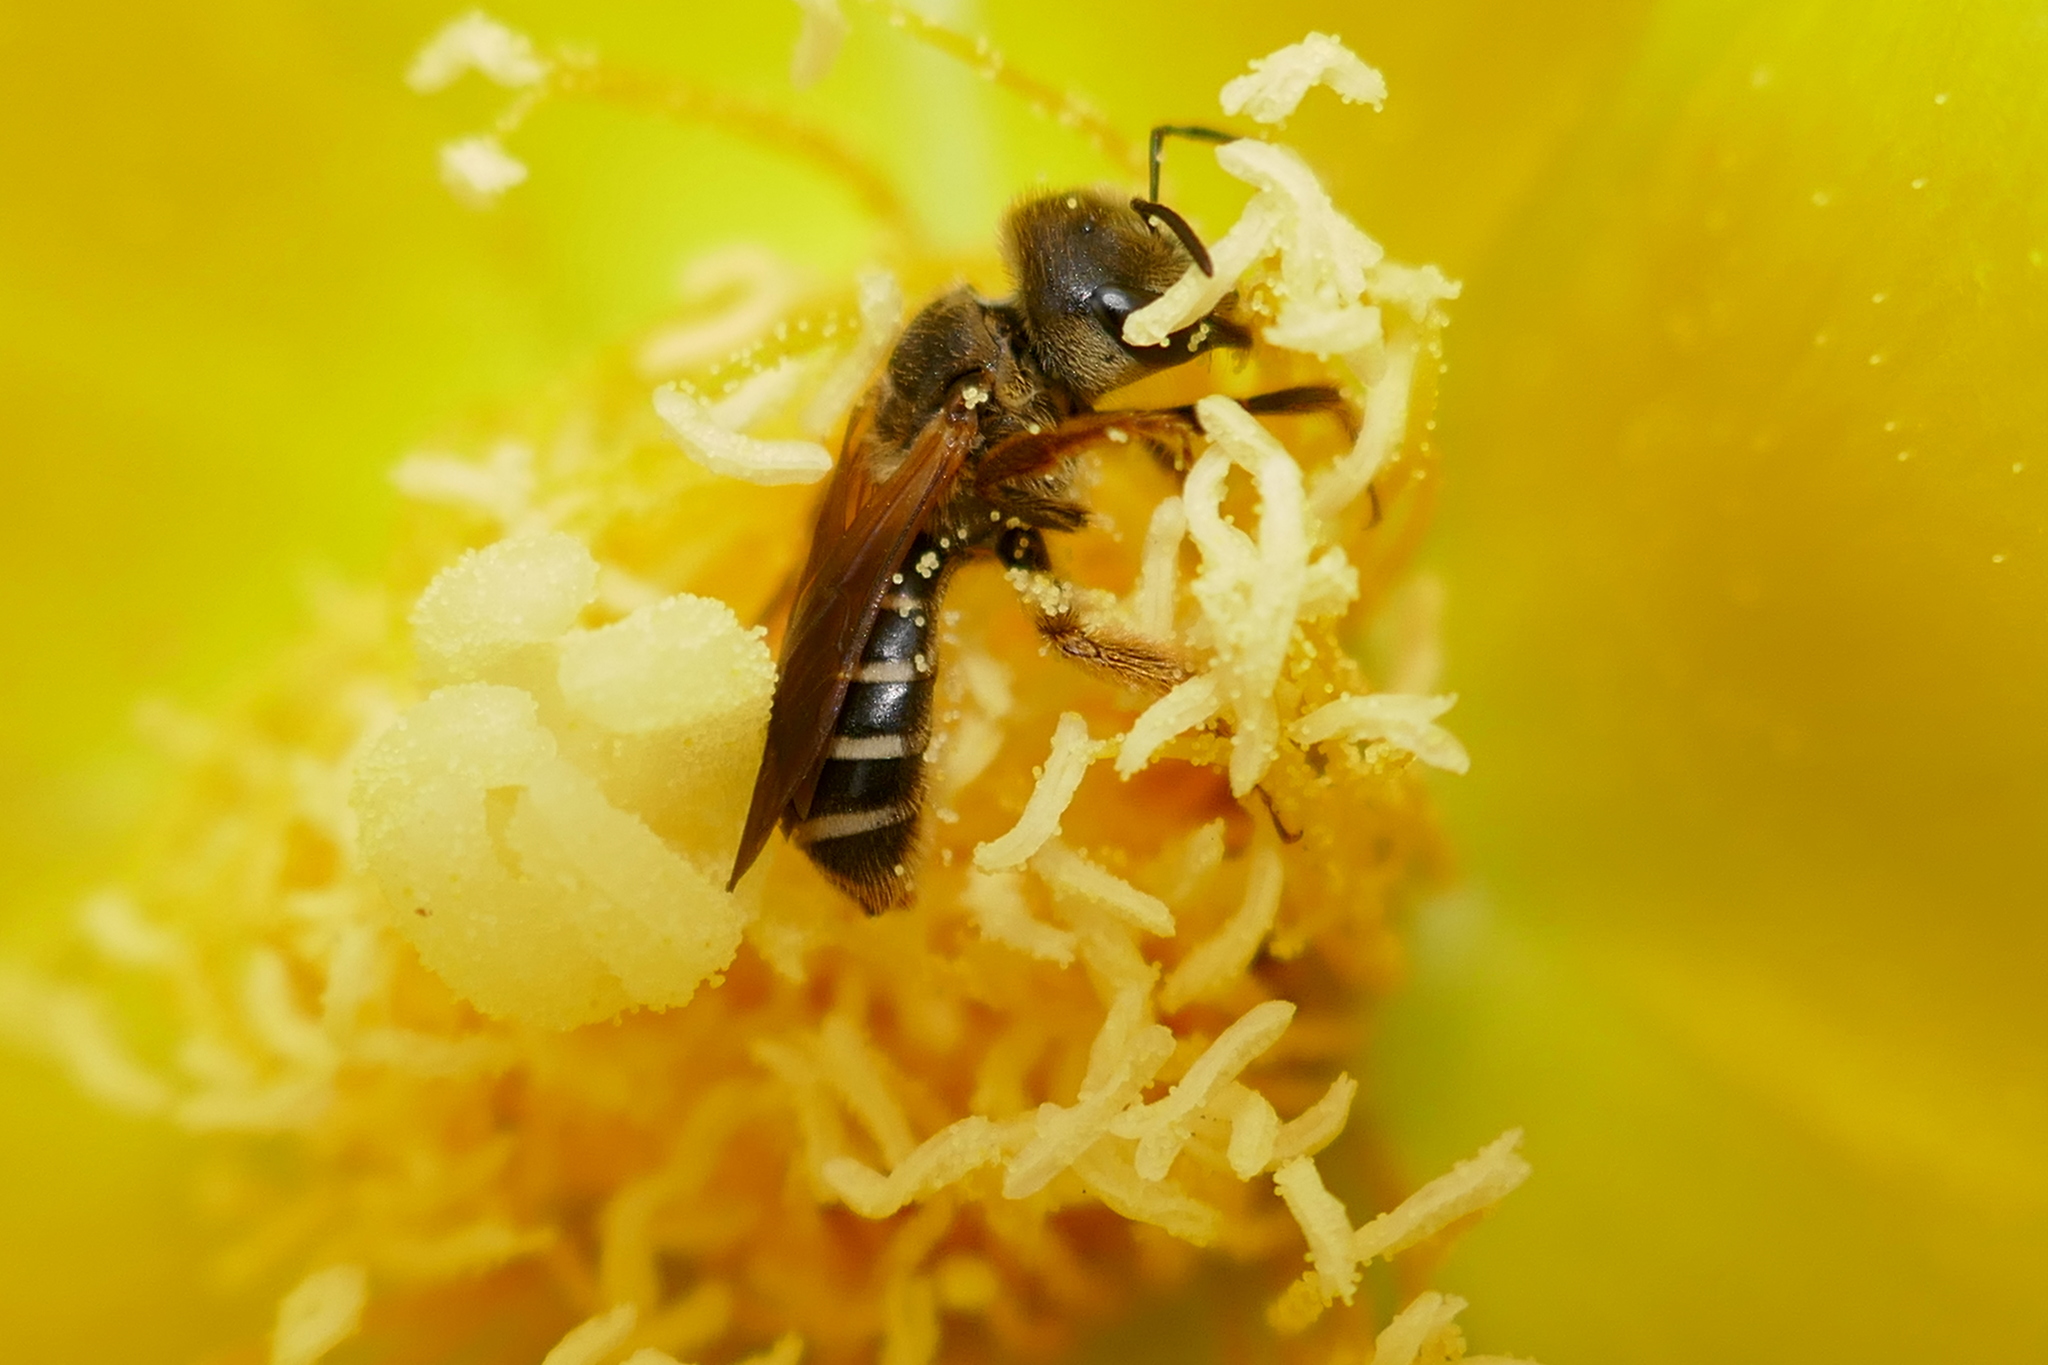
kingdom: Animalia
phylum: Arthropoda
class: Insecta
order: Hymenoptera
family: Halictidae
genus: Halictus
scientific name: Halictus poeyi
